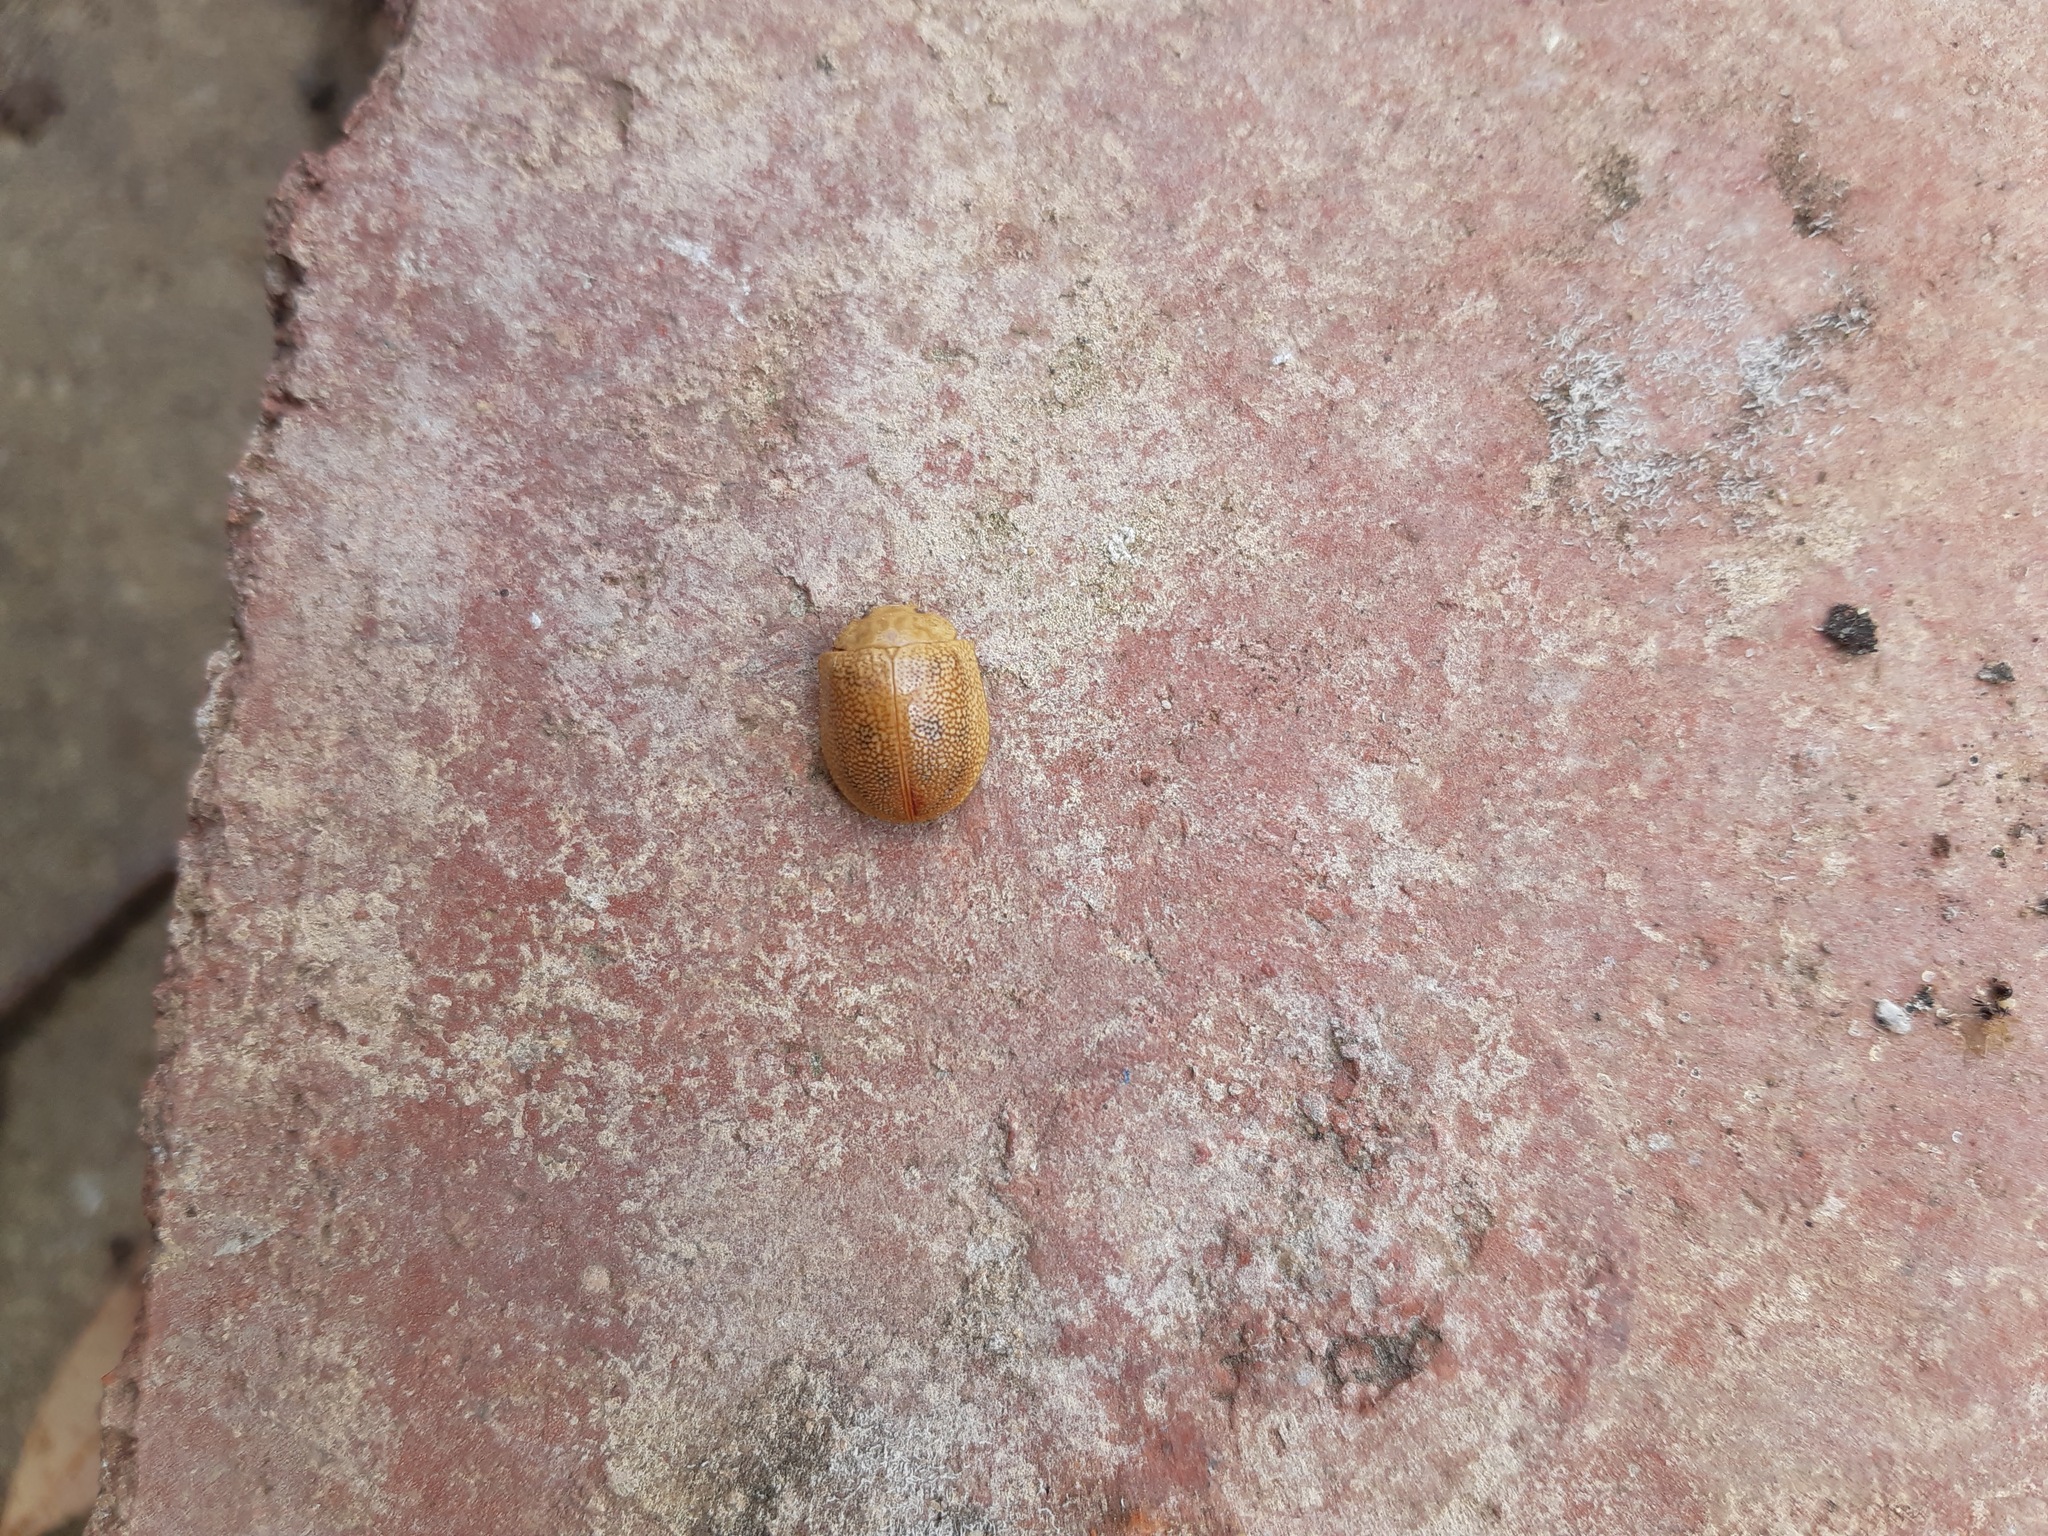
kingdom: Animalia
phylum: Arthropoda
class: Insecta
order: Coleoptera
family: Chrysomelidae
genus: Paropsis
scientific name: Paropsis
